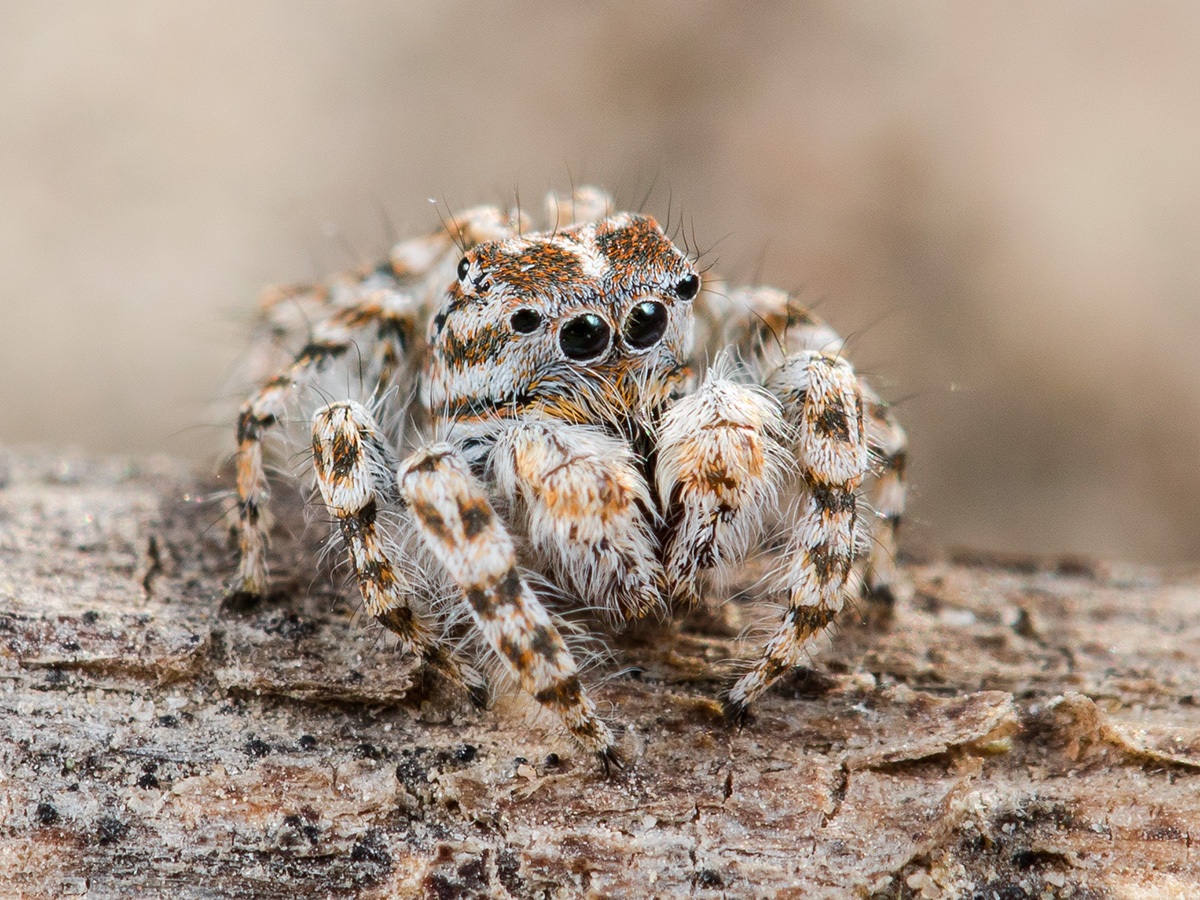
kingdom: Animalia
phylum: Arthropoda
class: Arachnida
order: Araneae
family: Salticidae
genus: Yllenus
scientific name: Yllenus turkestanicus
